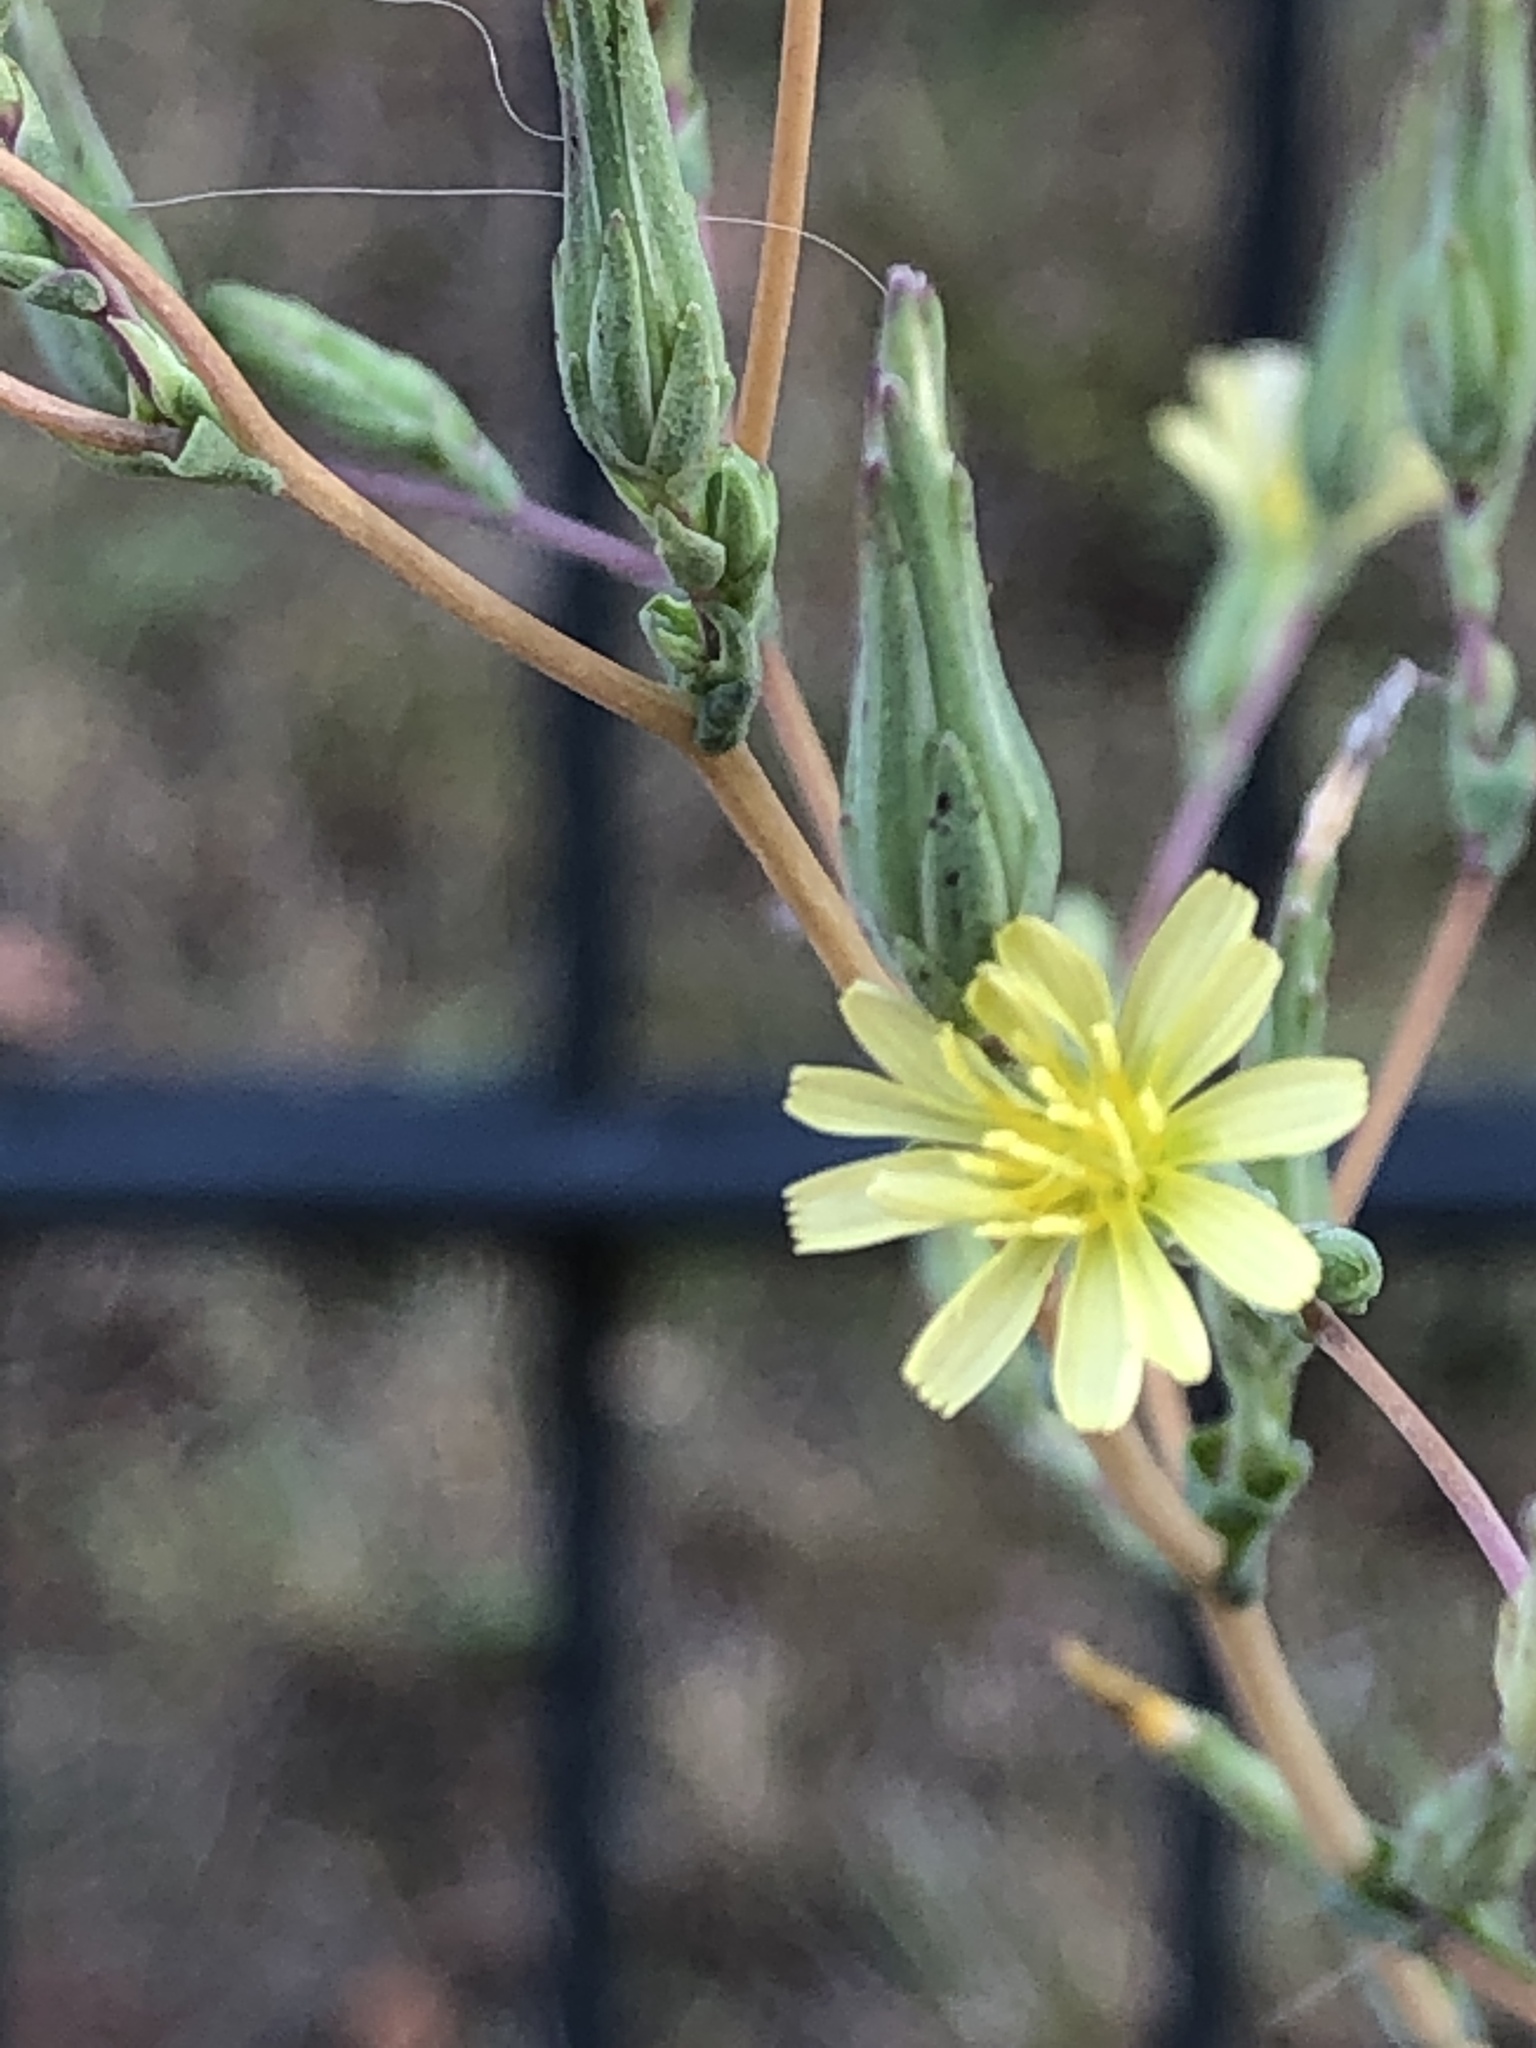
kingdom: Plantae
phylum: Tracheophyta
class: Magnoliopsida
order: Asterales
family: Asteraceae
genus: Lactuca
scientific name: Lactuca serriola
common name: Prickly lettuce
